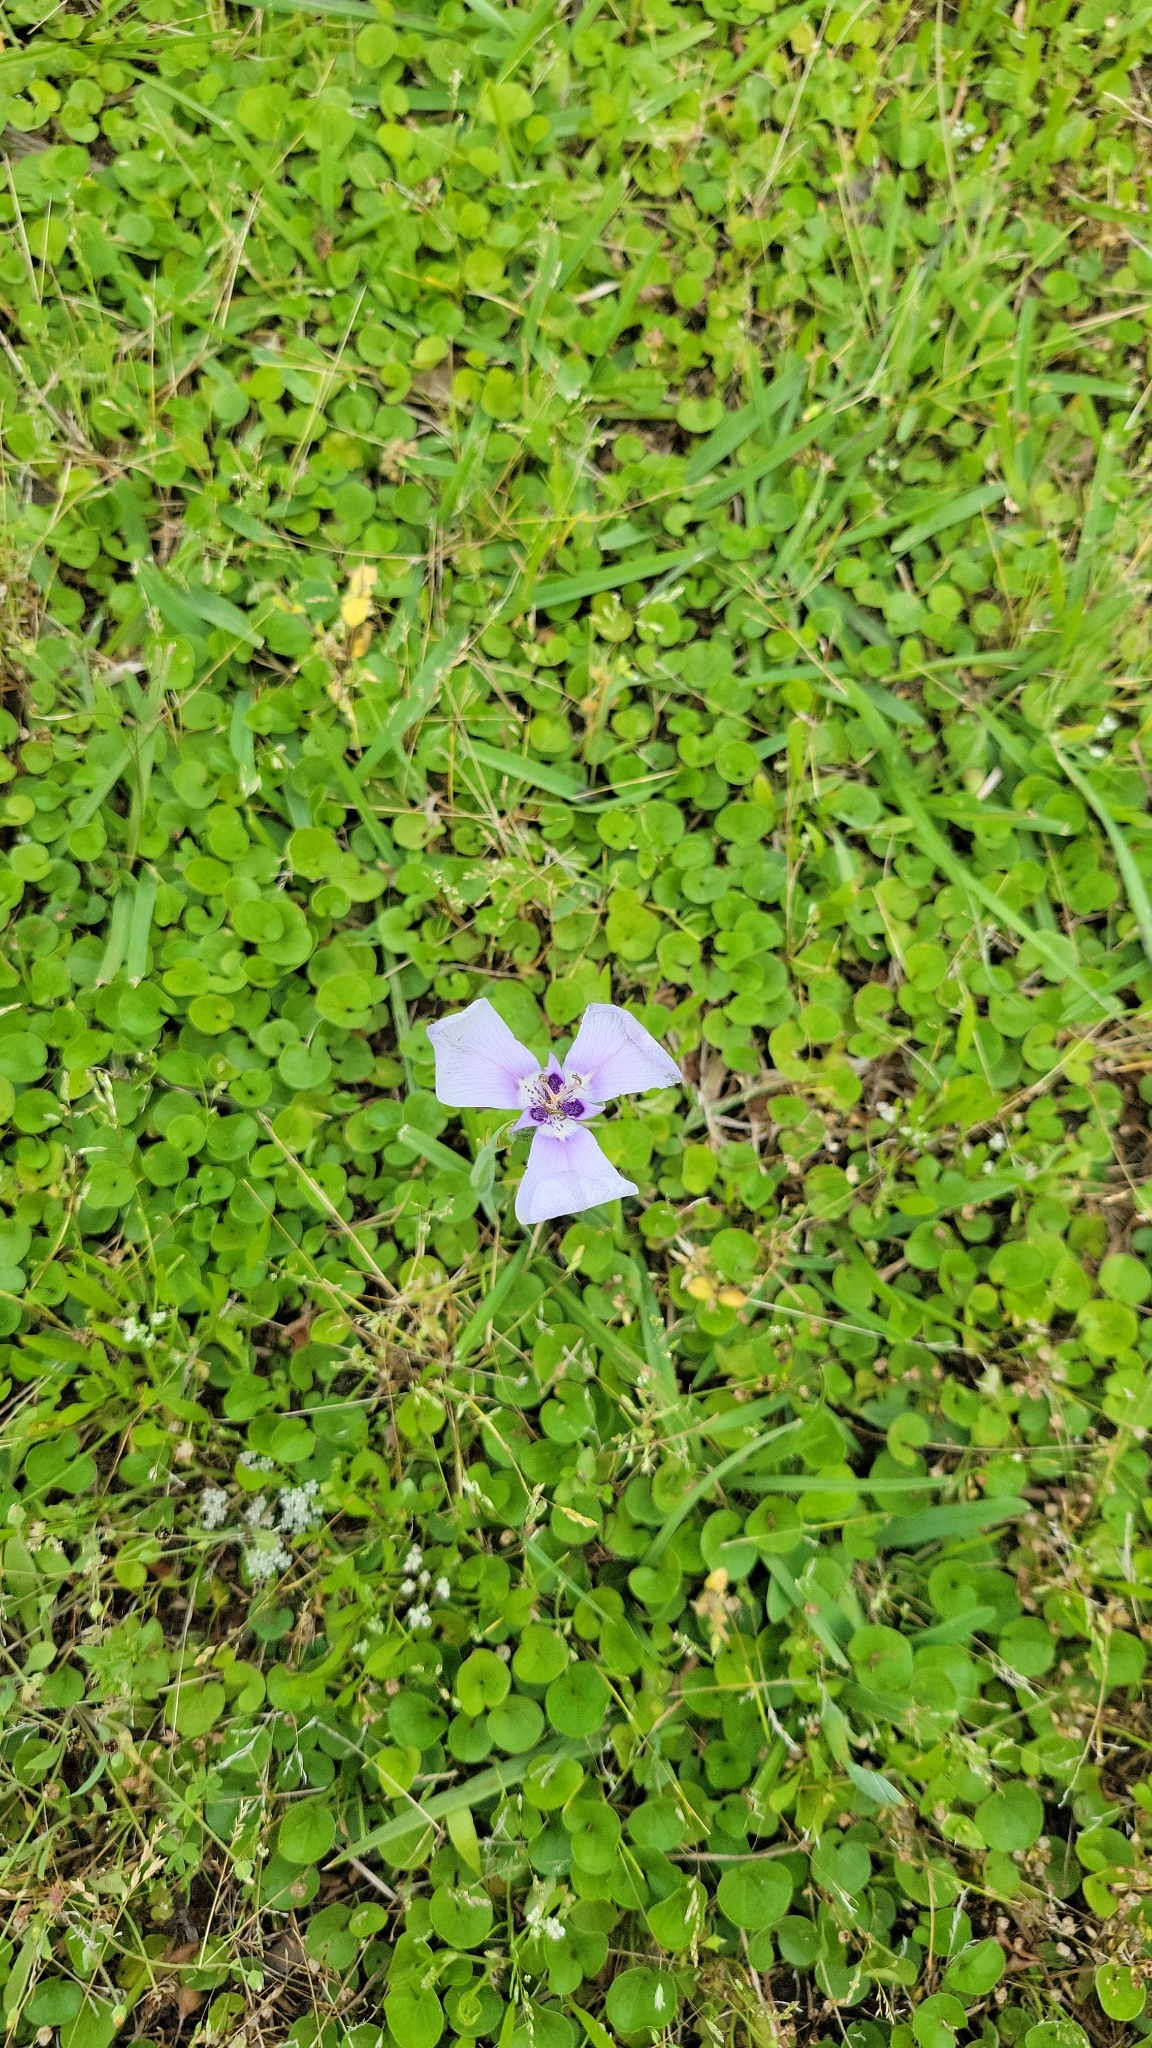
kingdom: Plantae
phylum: Tracheophyta
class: Liliopsida
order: Asparagales
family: Iridaceae
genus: Herbertia
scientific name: Herbertia lahue
